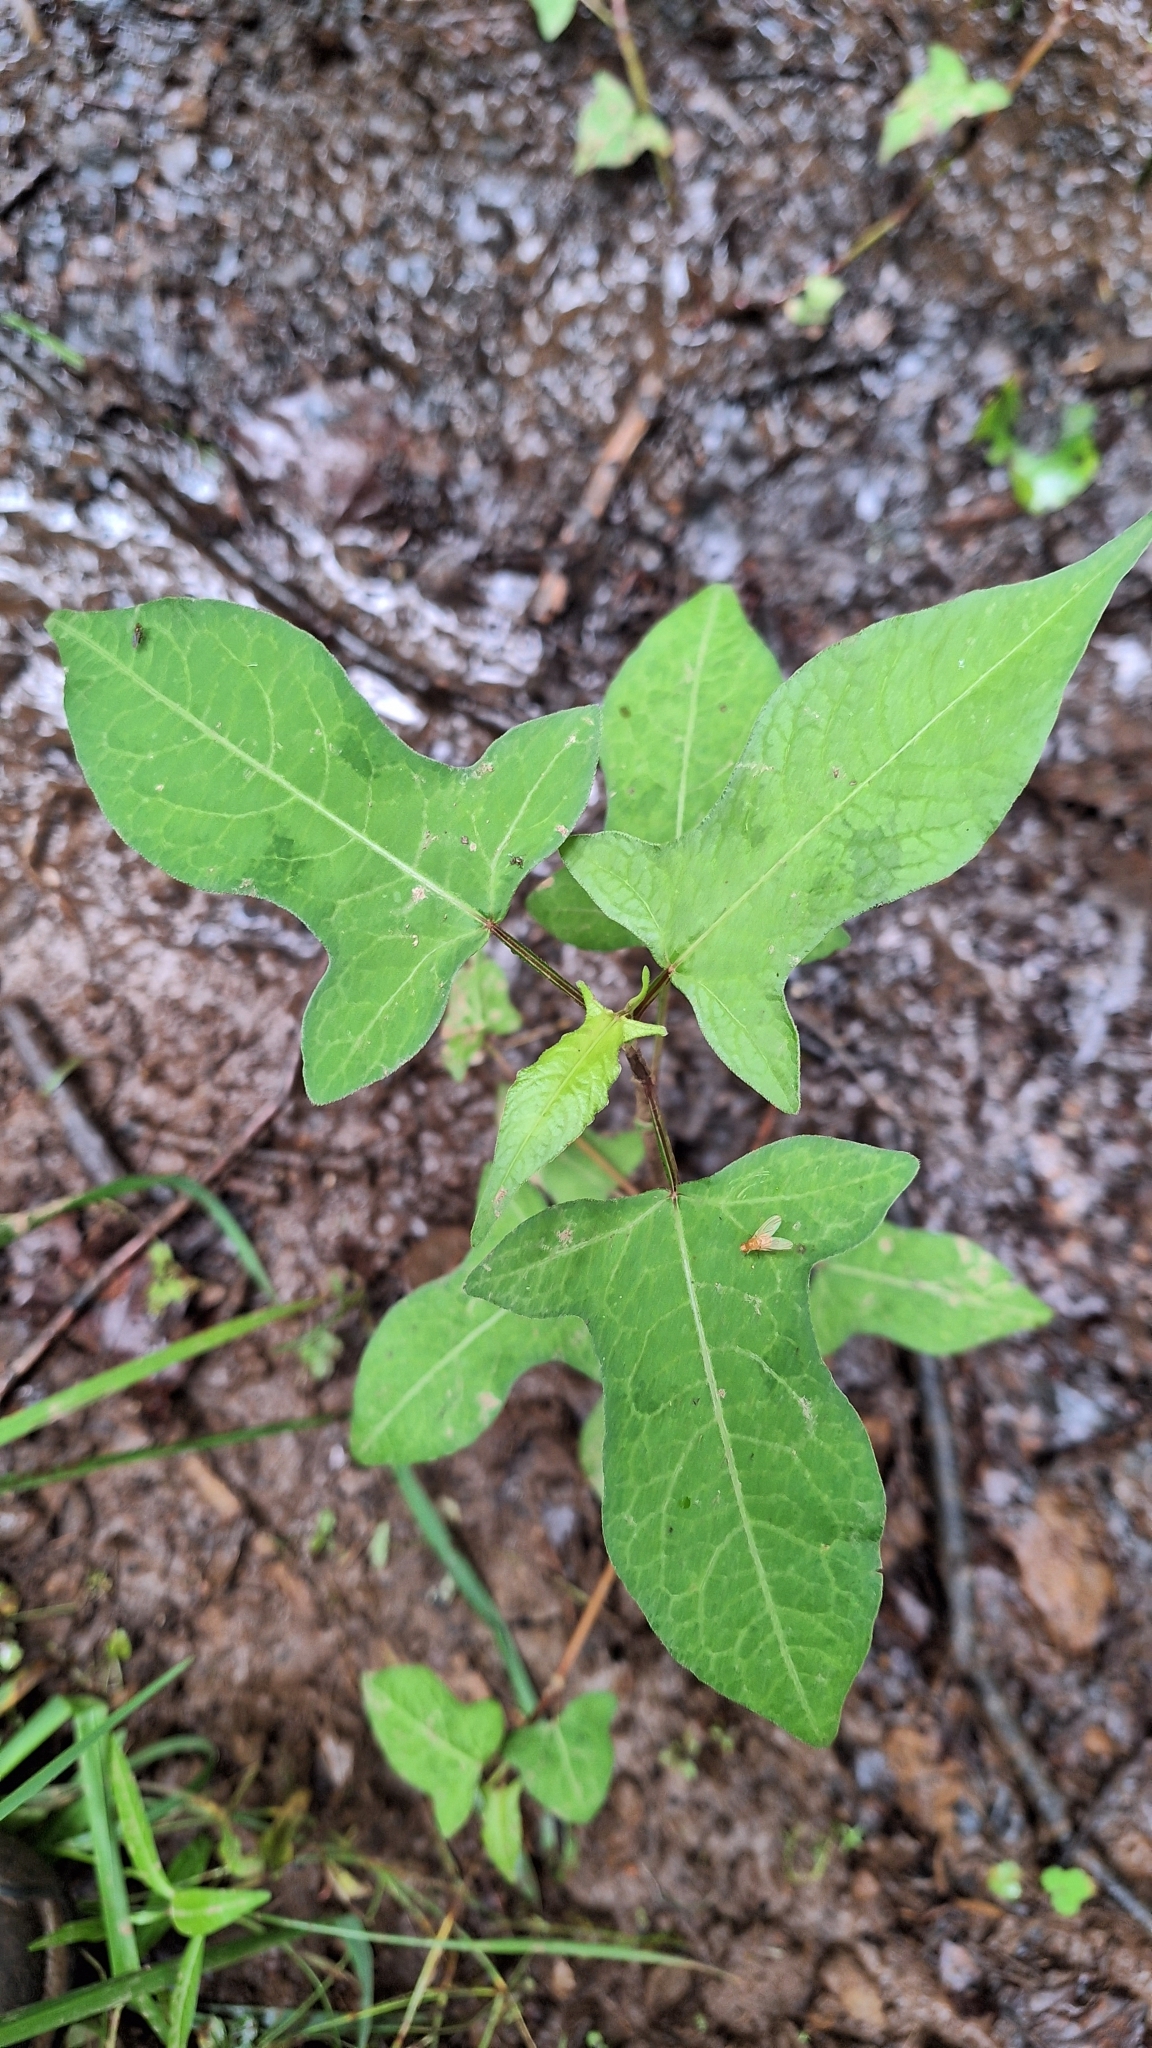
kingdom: Plantae
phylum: Tracheophyta
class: Magnoliopsida
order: Caryophyllales
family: Polygonaceae
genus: Persicaria
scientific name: Persicaria thunbergii
